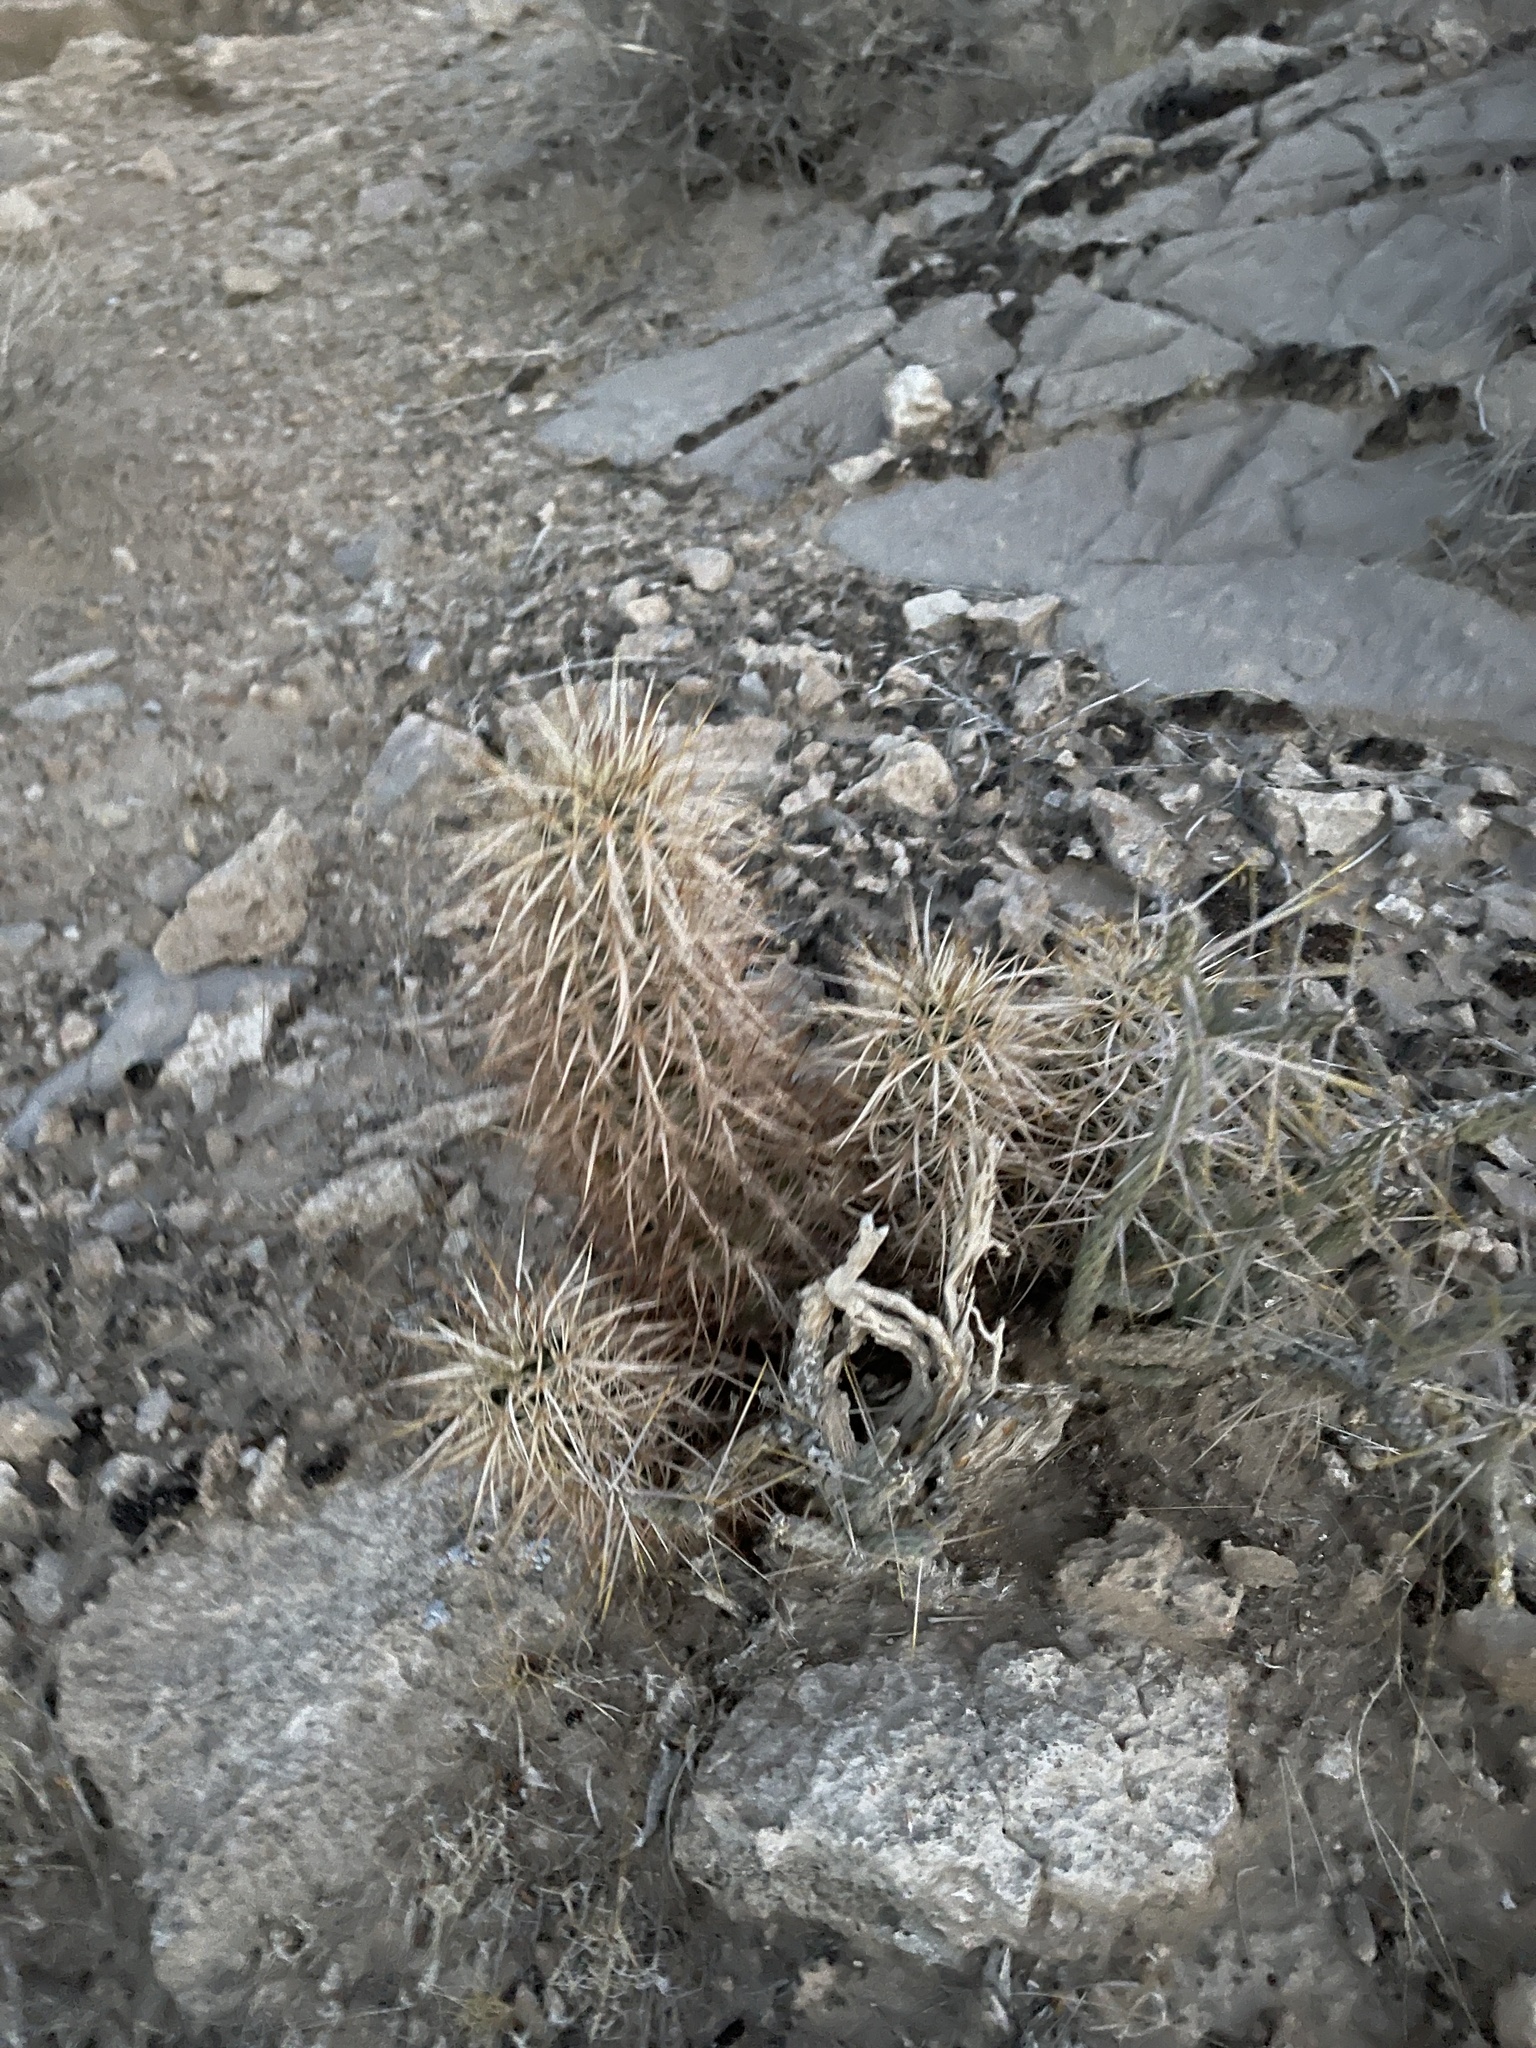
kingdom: Plantae
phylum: Tracheophyta
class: Magnoliopsida
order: Caryophyllales
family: Cactaceae
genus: Echinocereus
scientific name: Echinocereus engelmannii
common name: Engelmann's hedgehog cactus
